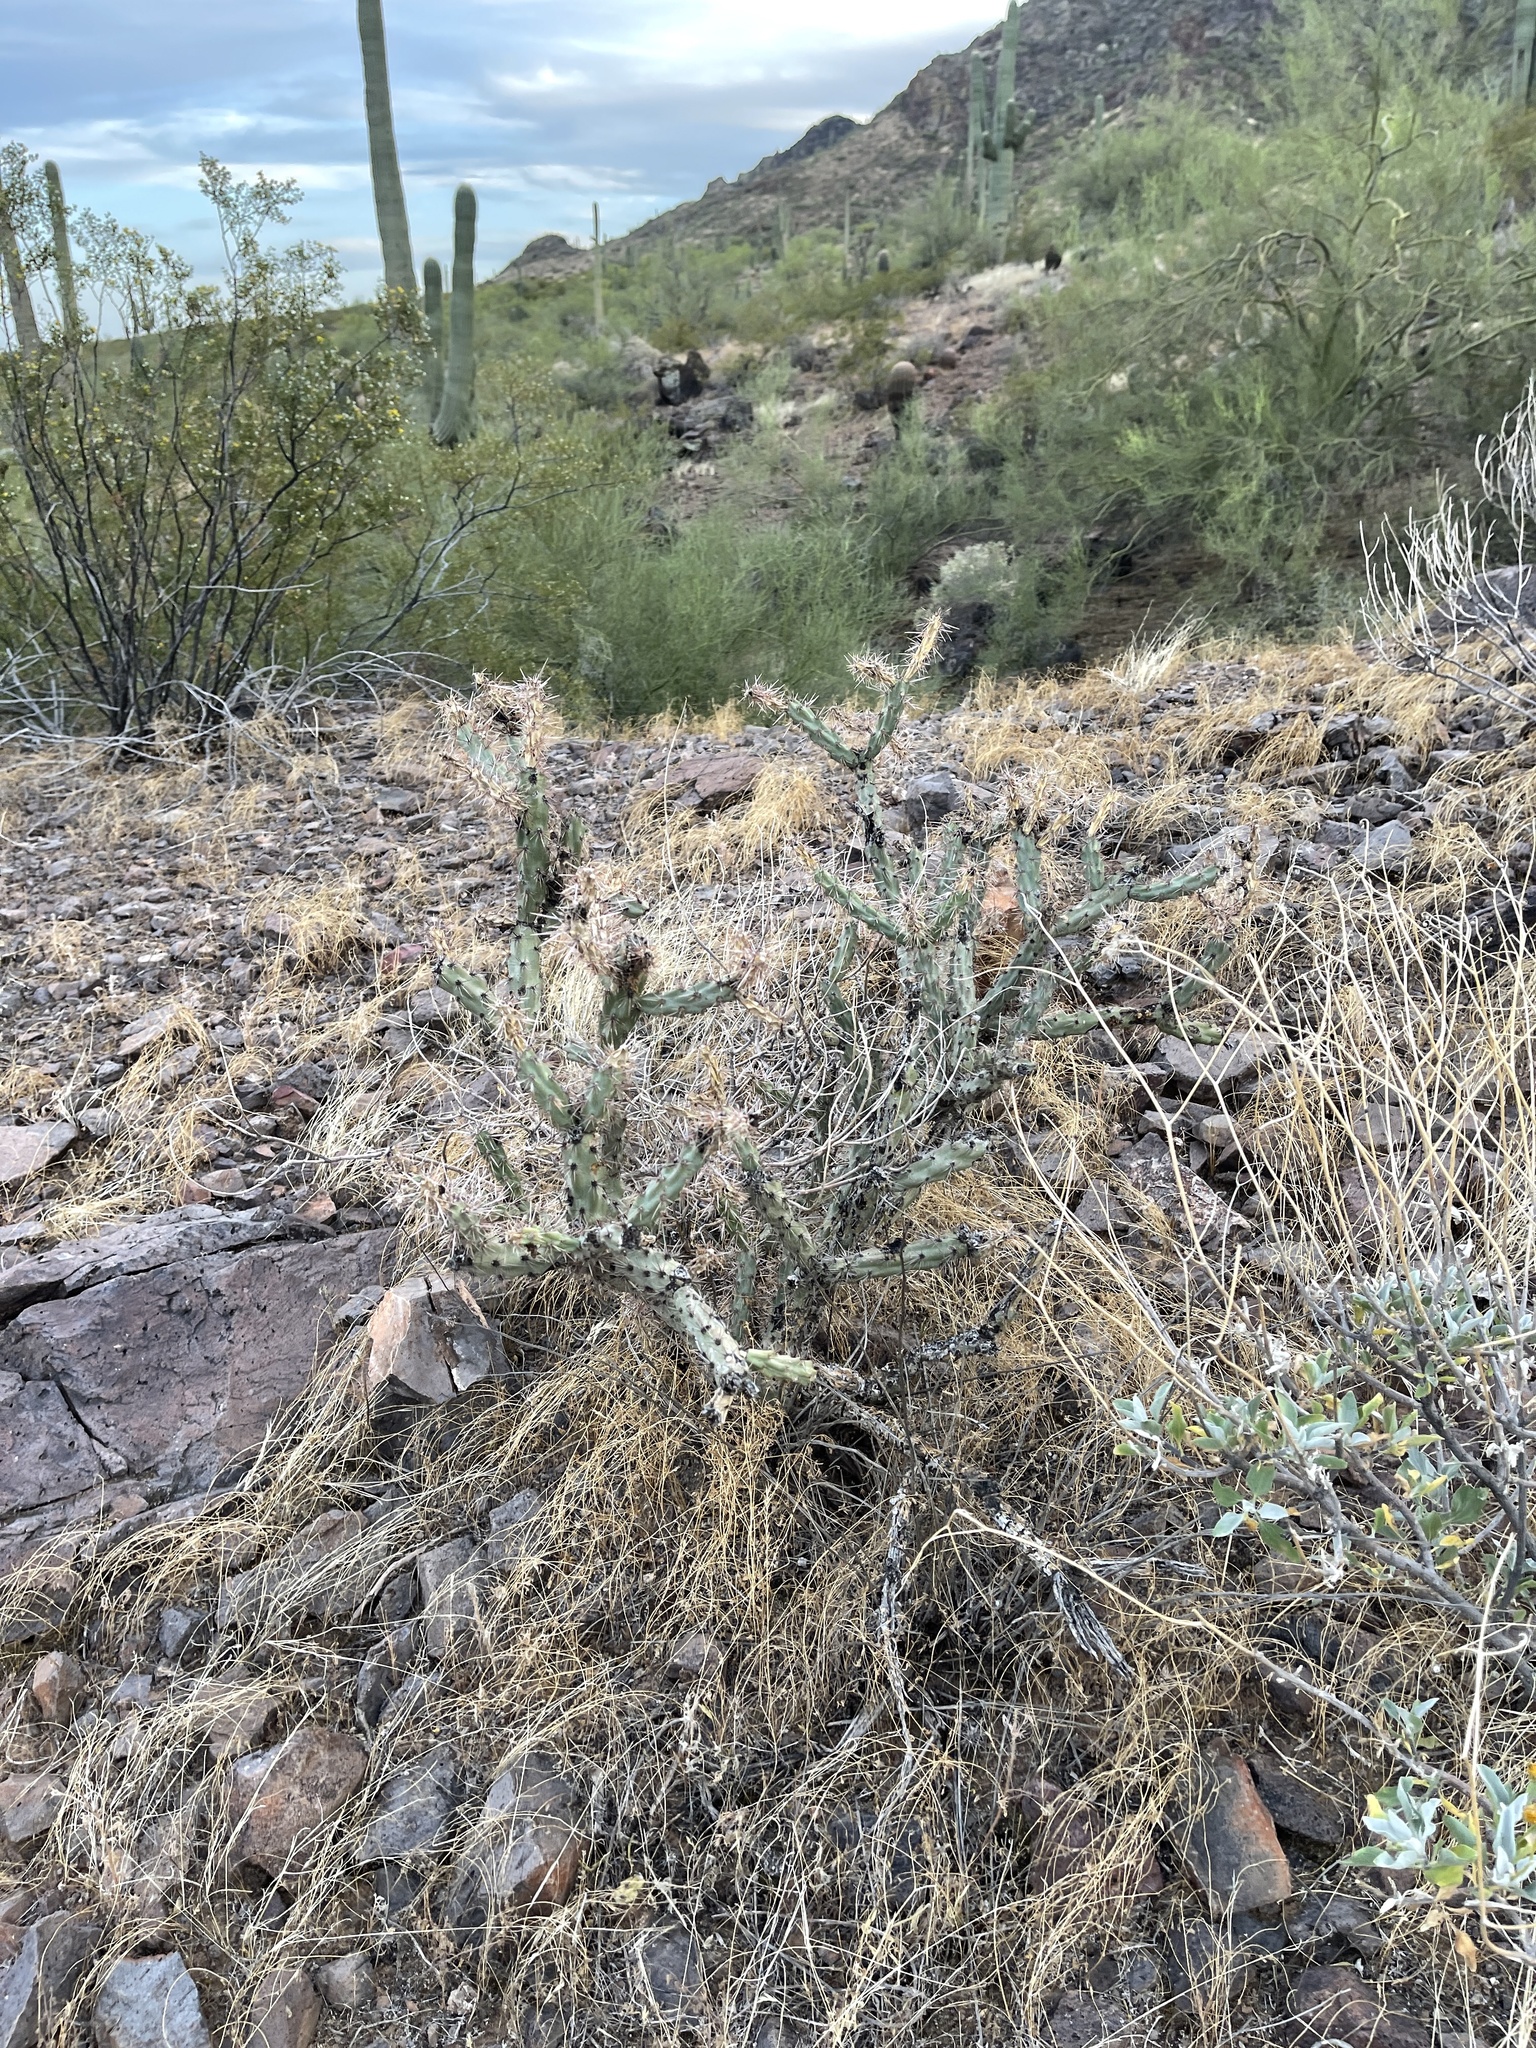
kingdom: Plantae
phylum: Tracheophyta
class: Magnoliopsida
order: Caryophyllales
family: Cactaceae
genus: Cylindropuntia
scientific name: Cylindropuntia acanthocarpa
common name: Buckhorn cholla
